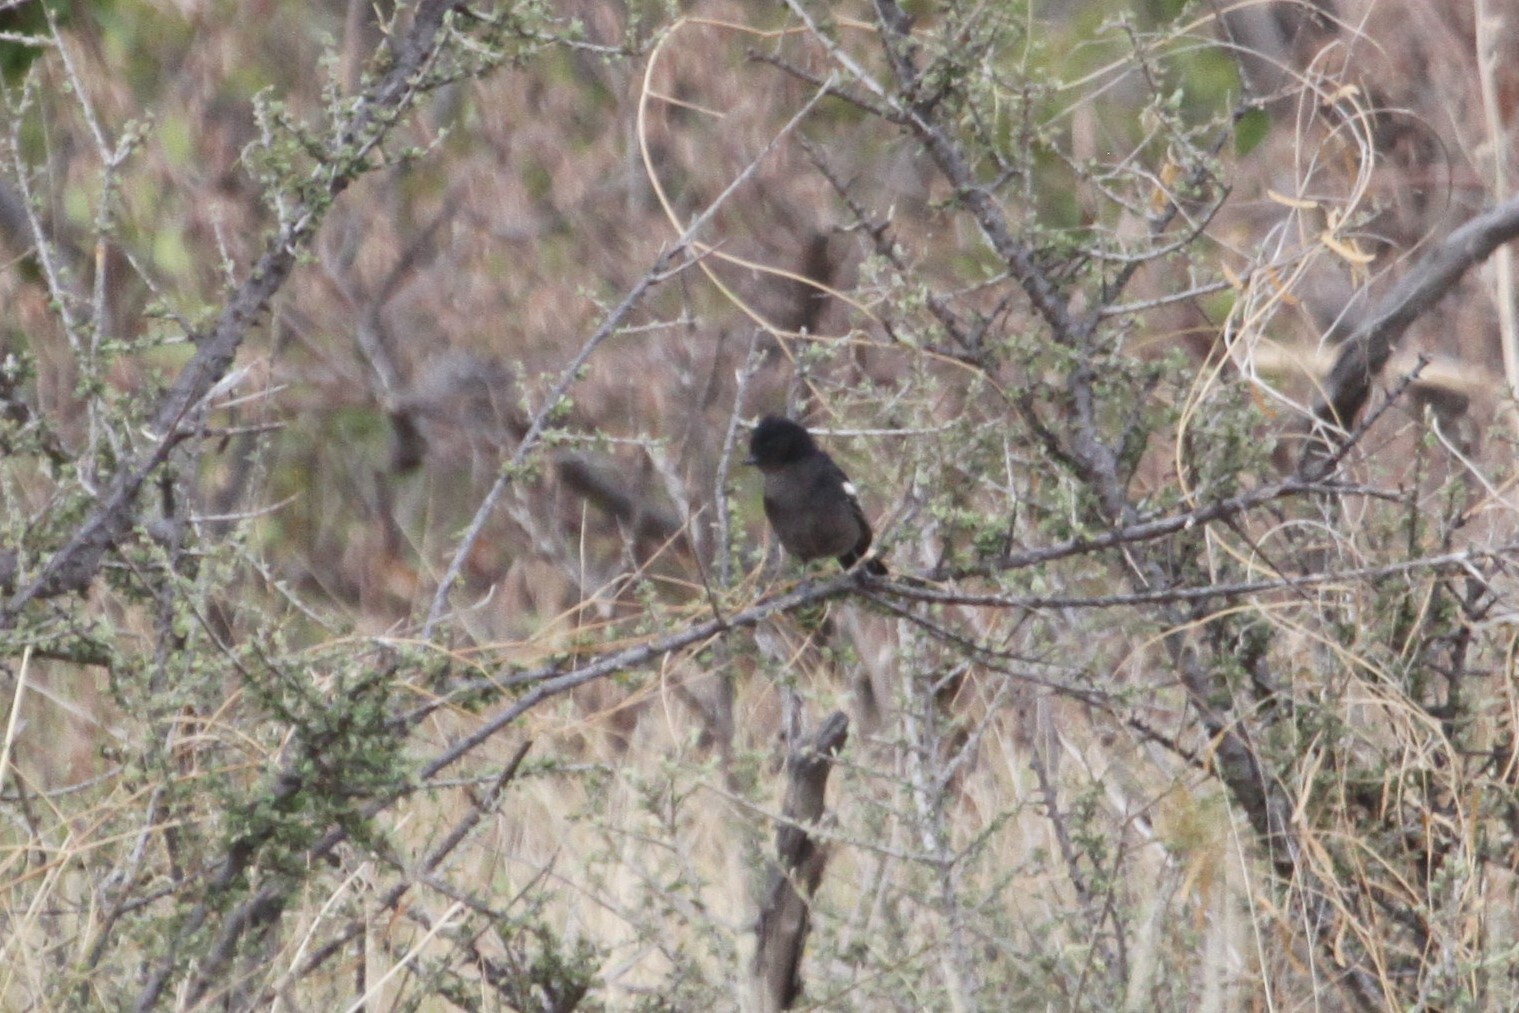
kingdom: Animalia
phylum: Chordata
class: Aves
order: Passeriformes
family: Paridae
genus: Parus
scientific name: Parus niger
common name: Southern black tit
